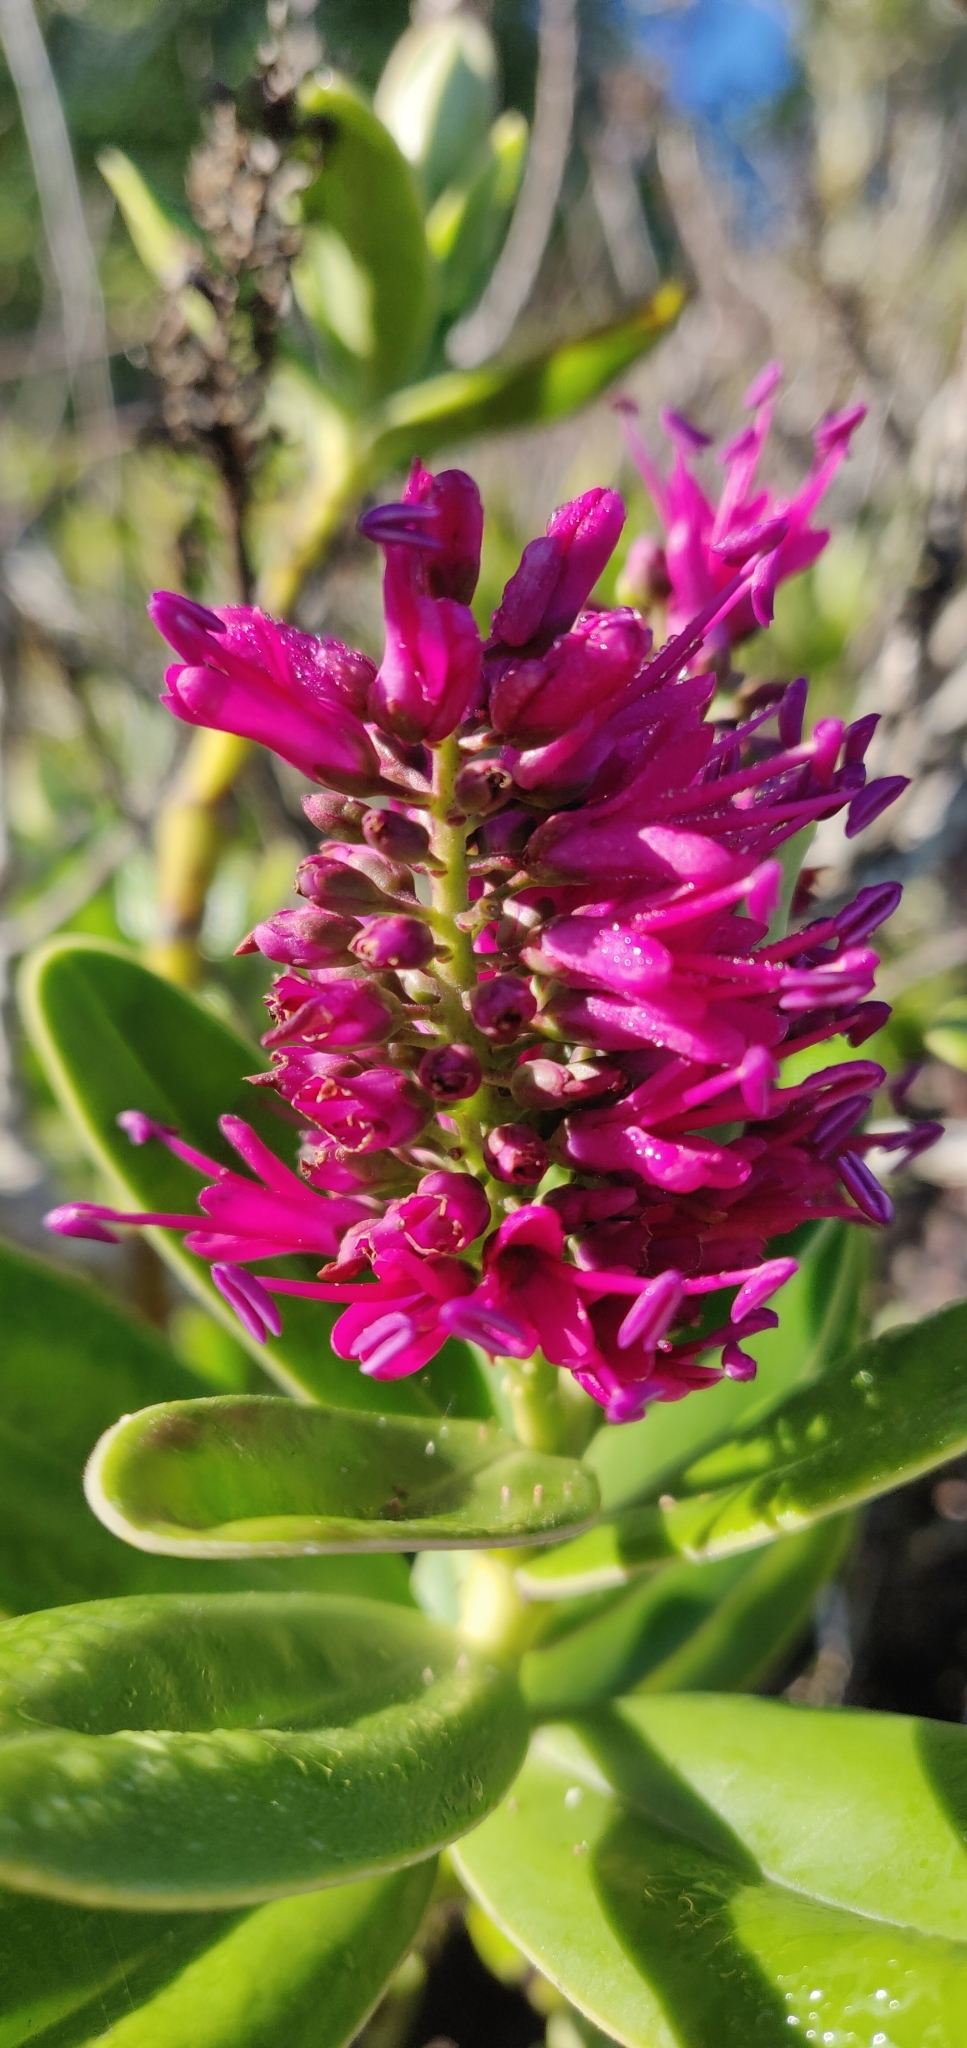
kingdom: Plantae
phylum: Tracheophyta
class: Magnoliopsida
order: Lamiales
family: Plantaginaceae
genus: Veronica
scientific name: Veronica speciosa
